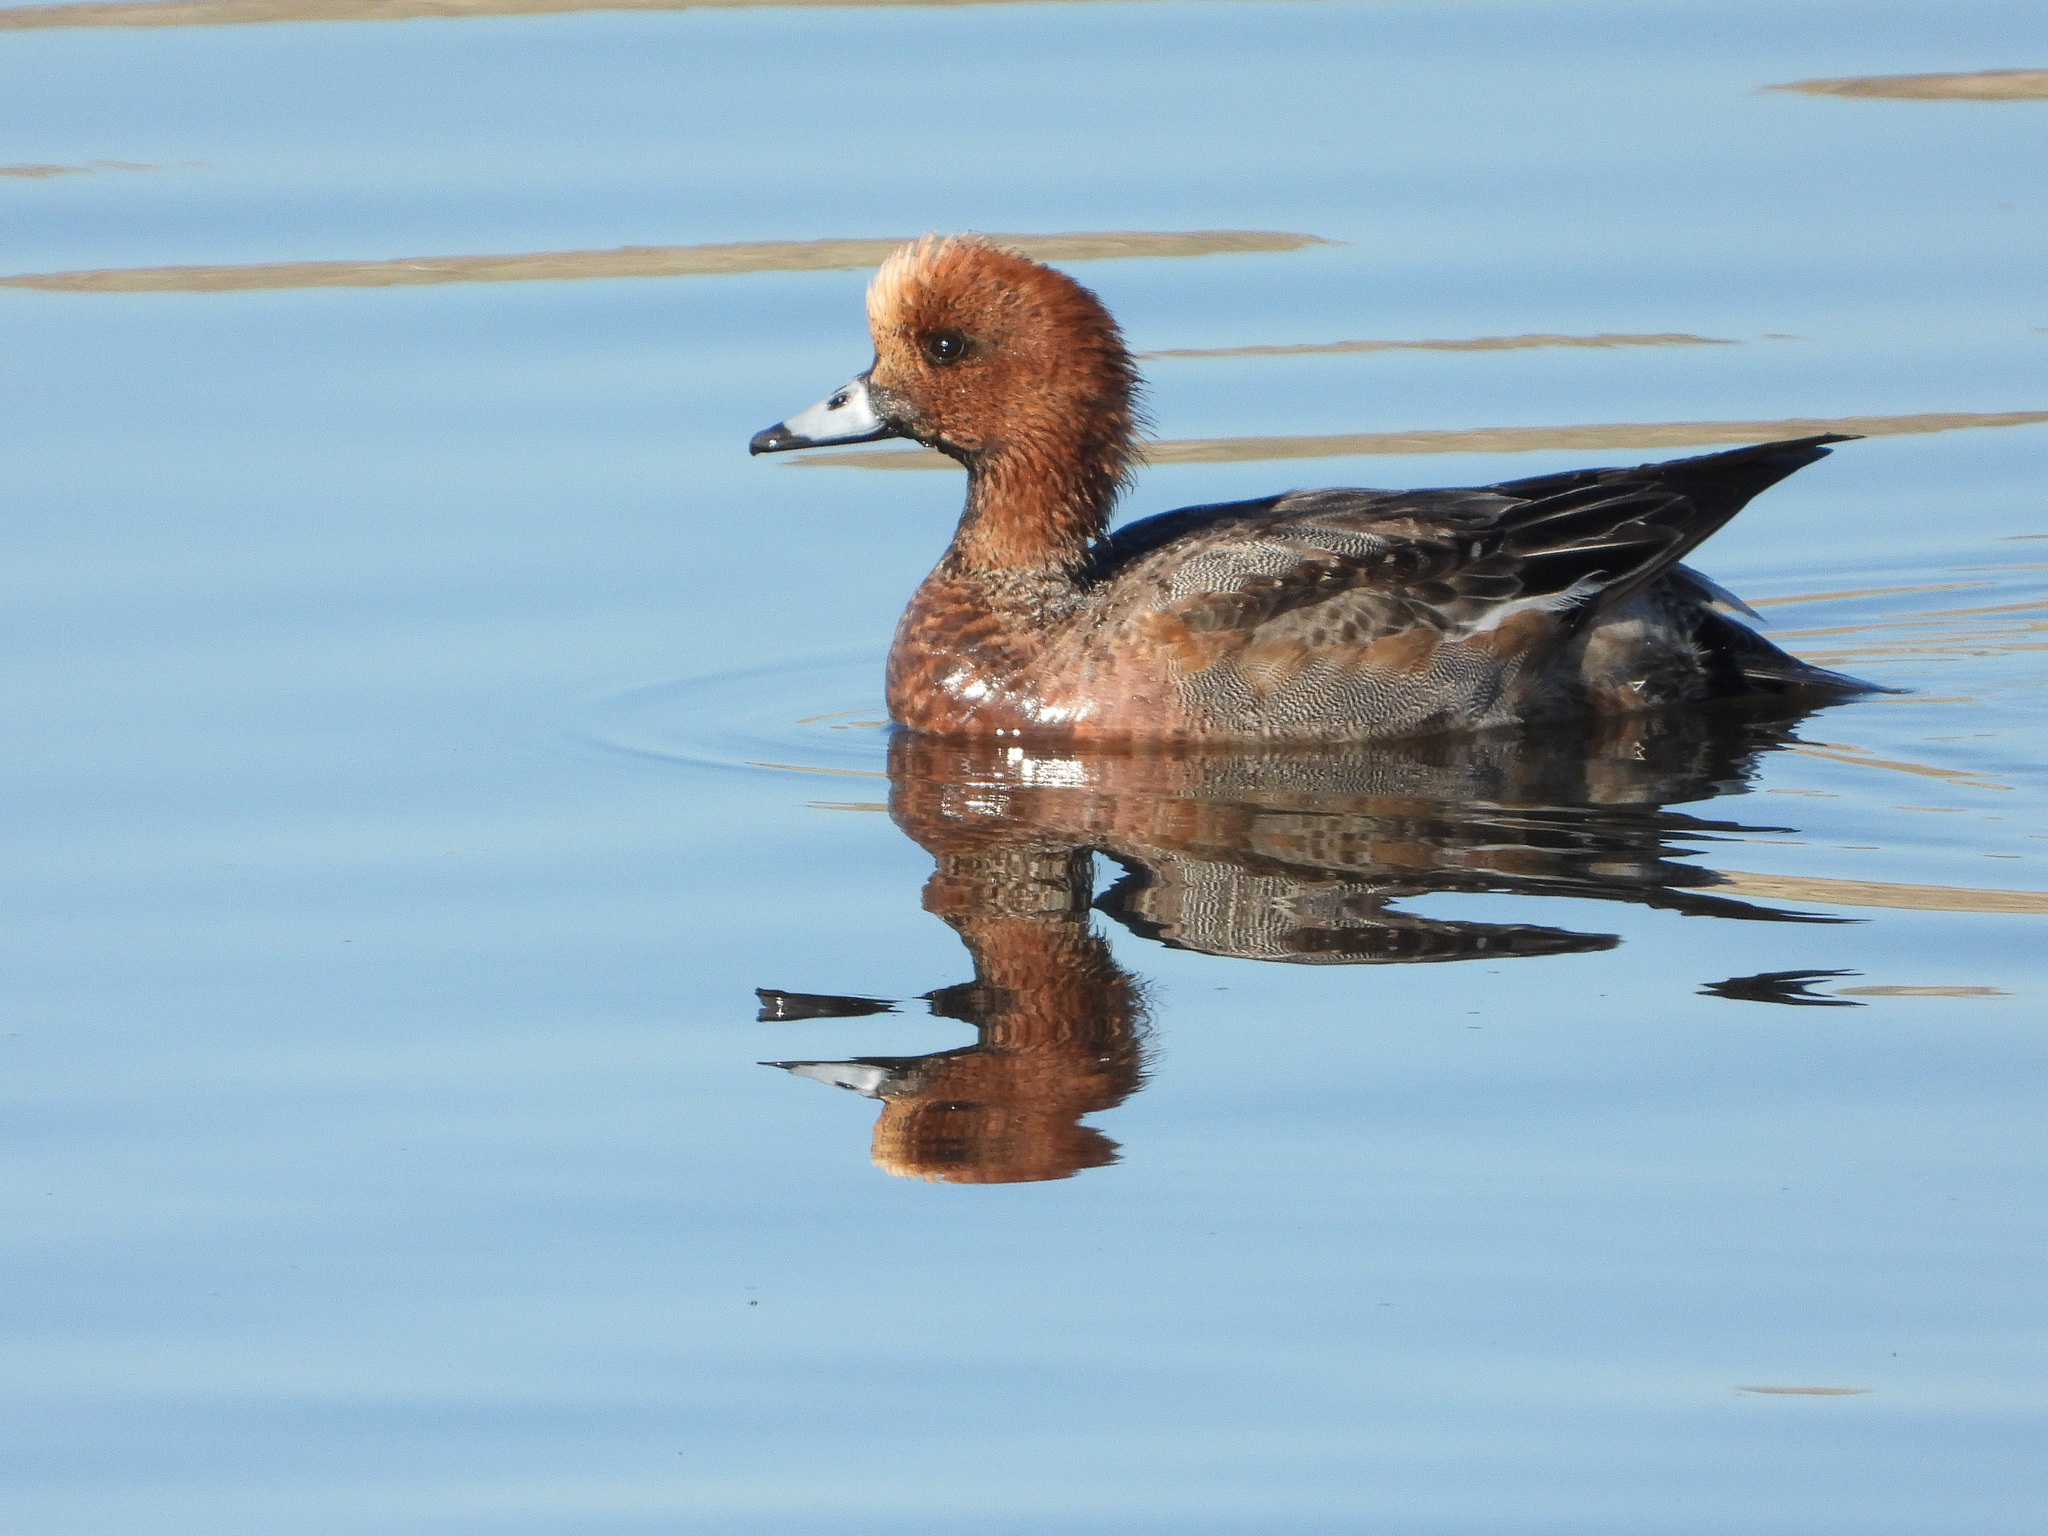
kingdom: Animalia
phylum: Chordata
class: Aves
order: Anseriformes
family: Anatidae
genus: Mareca
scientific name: Mareca penelope
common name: Eurasian wigeon
